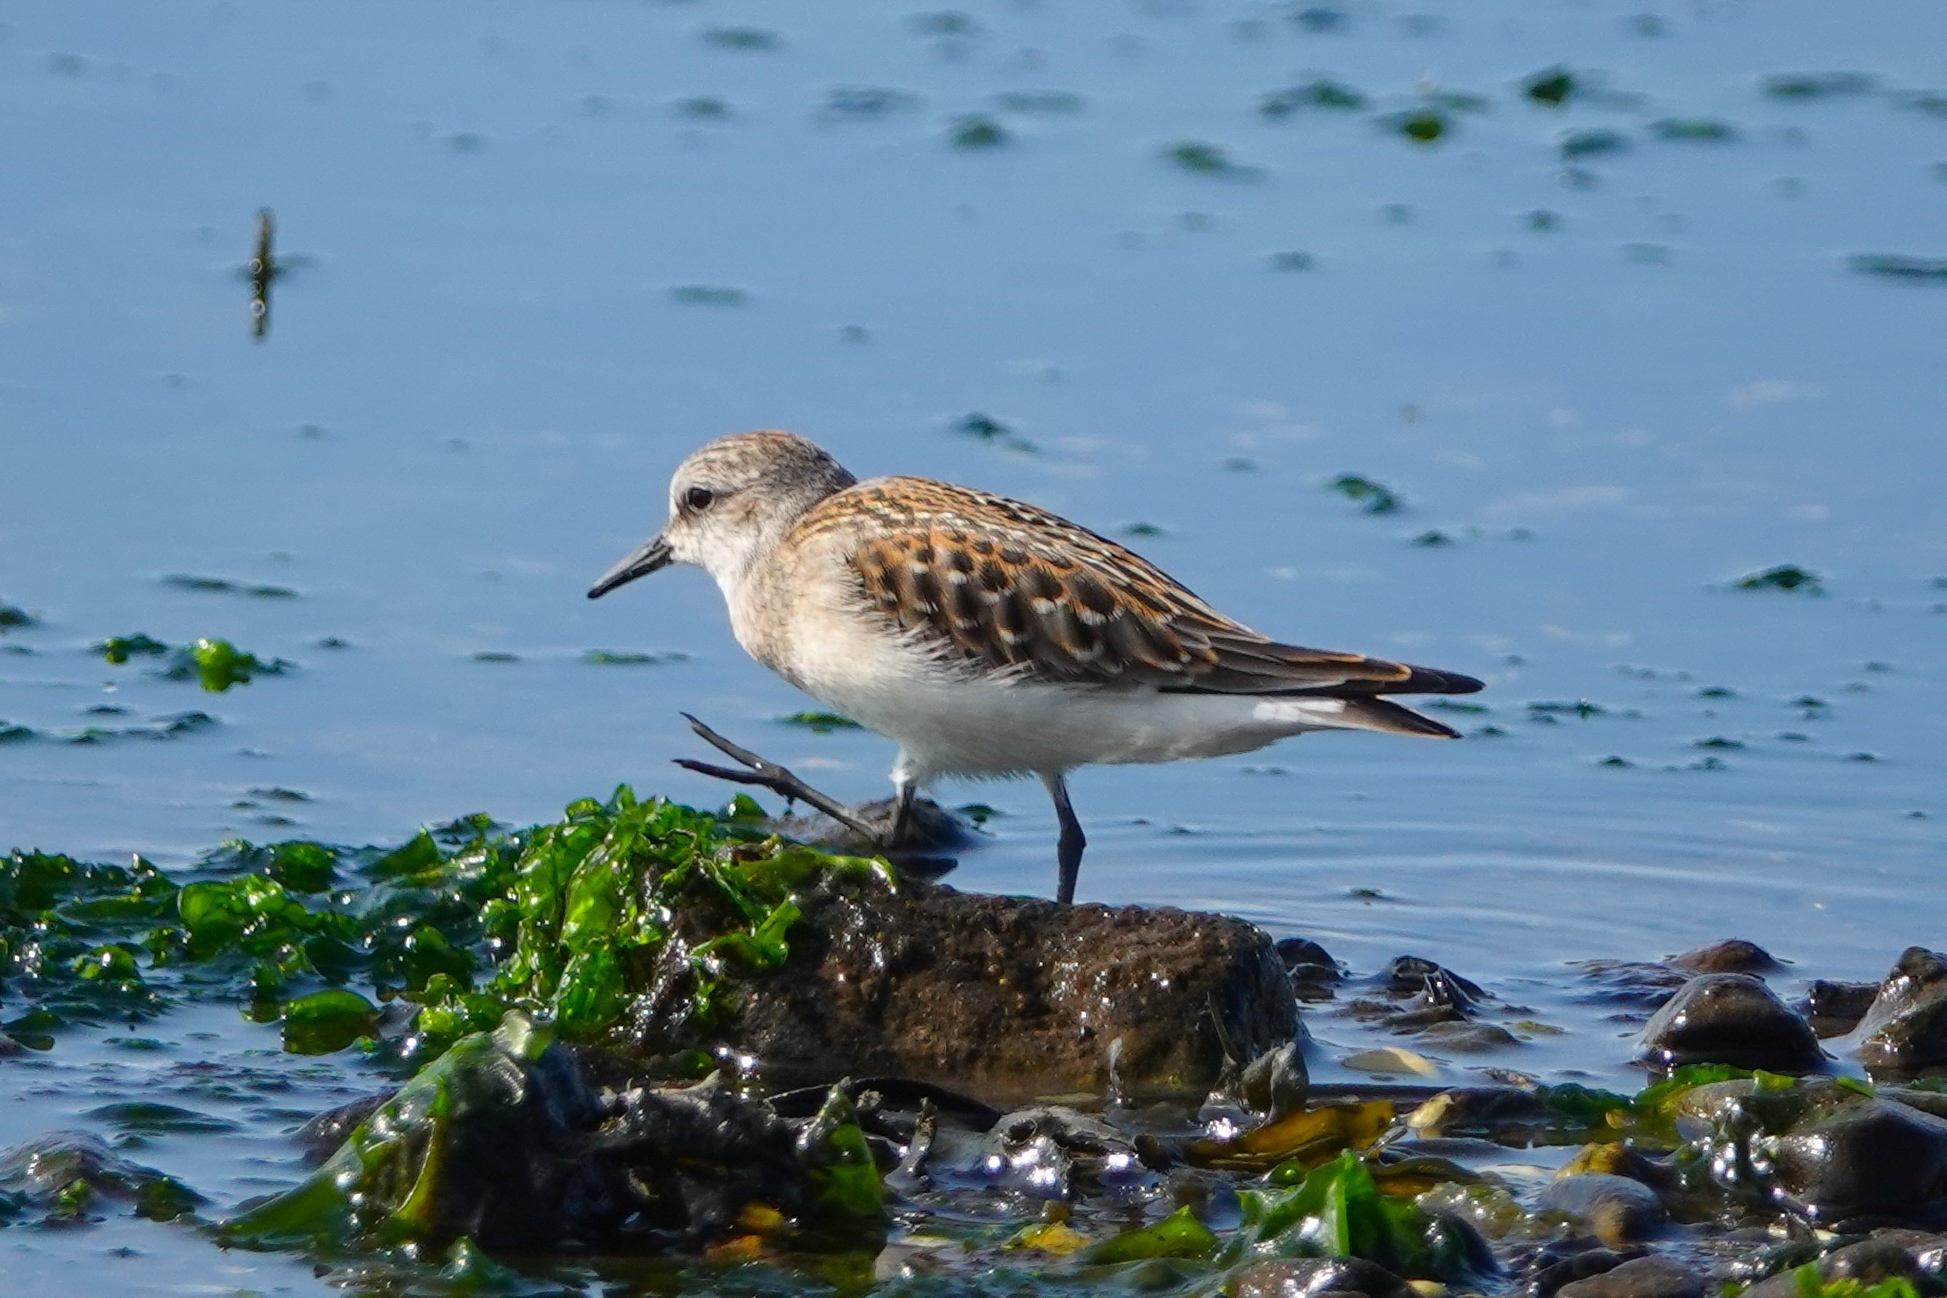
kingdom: Animalia
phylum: Chordata
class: Aves
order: Charadriiformes
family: Scolopacidae
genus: Calidris
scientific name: Calidris ruficollis
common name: Red-necked stint
